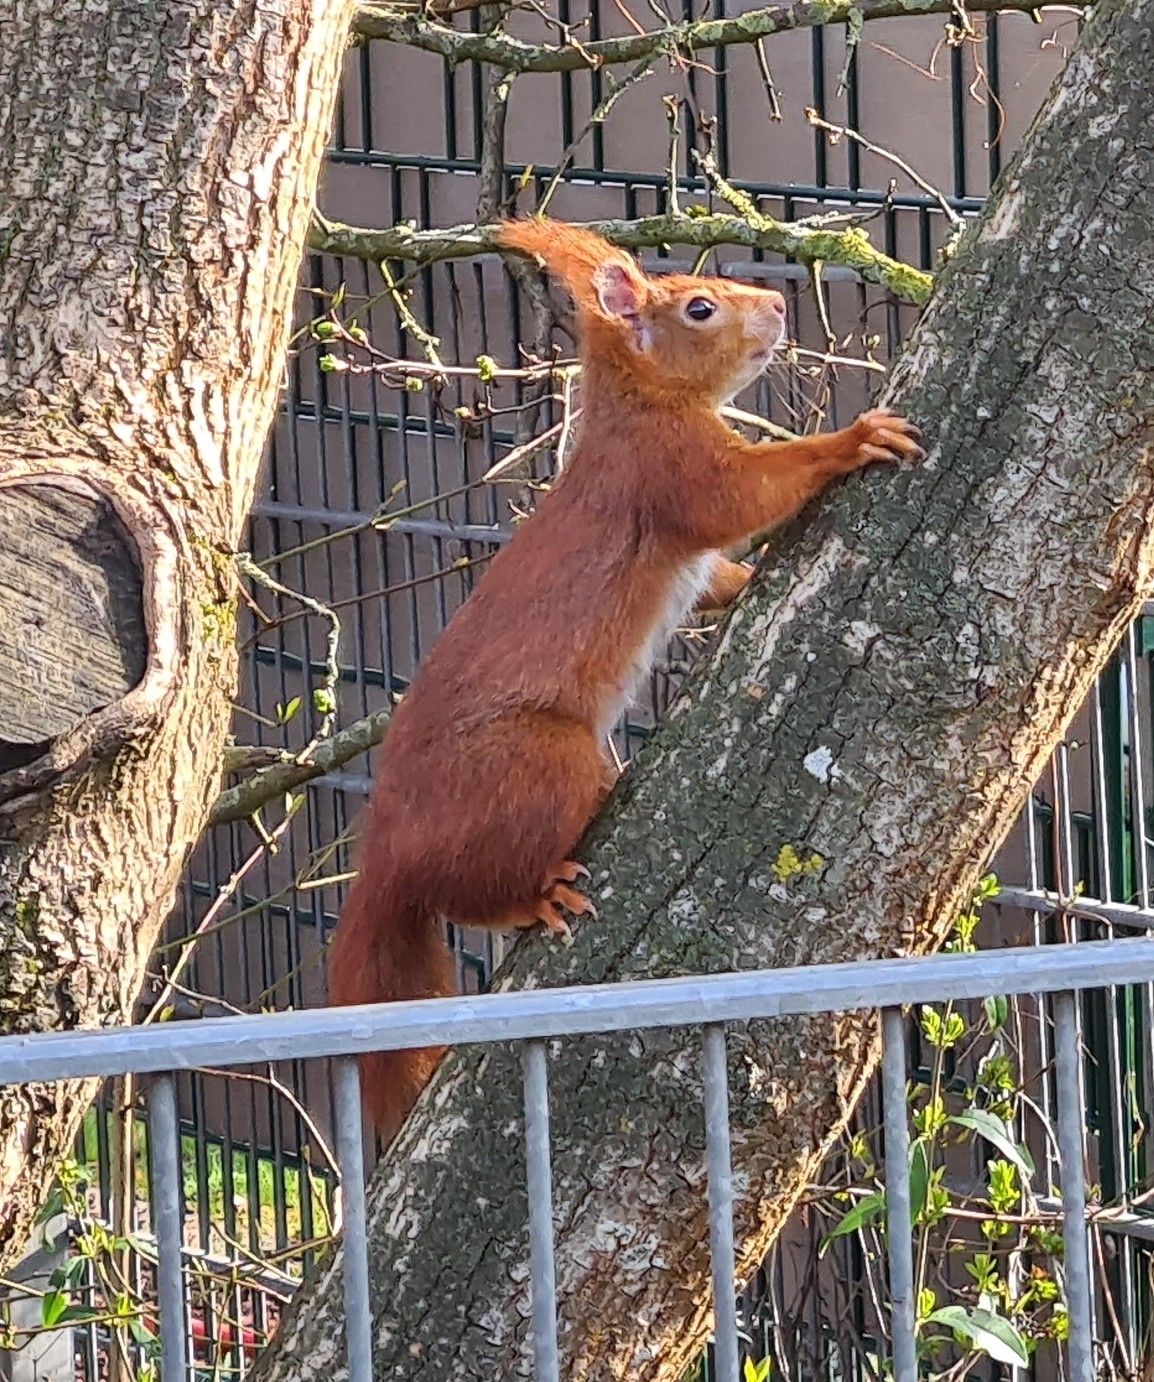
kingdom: Animalia
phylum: Chordata
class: Mammalia
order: Rodentia
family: Sciuridae
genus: Sciurus
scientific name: Sciurus vulgaris
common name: Eurasian red squirrel
